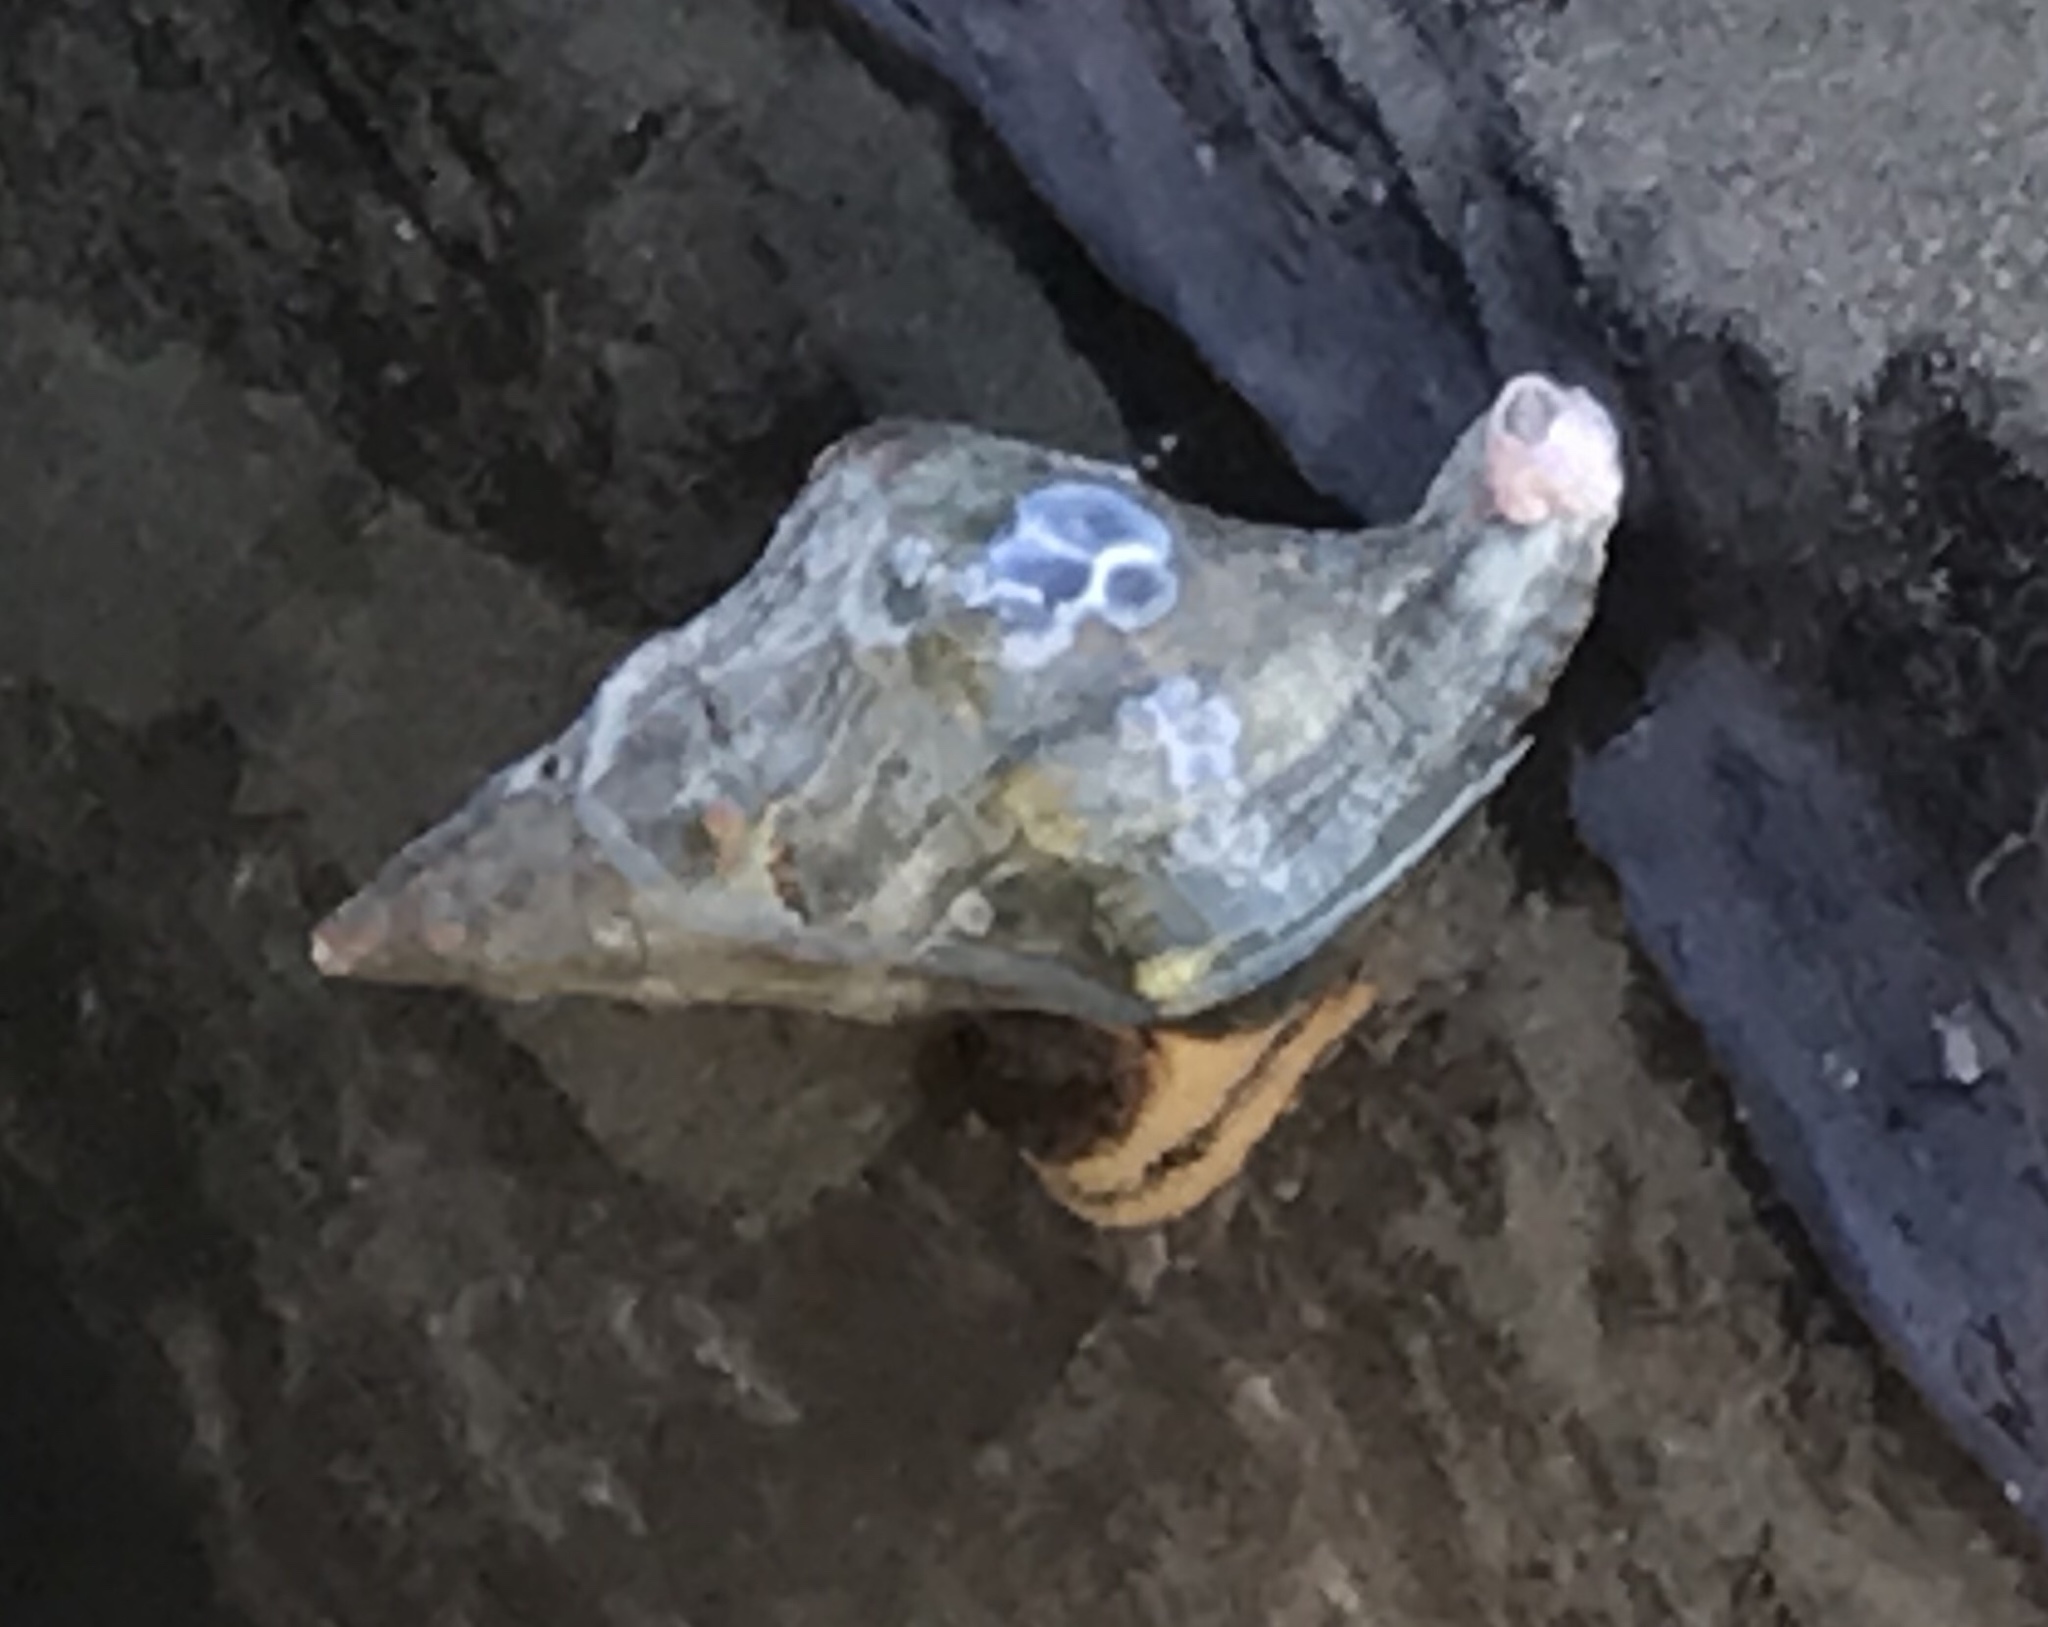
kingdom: Animalia
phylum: Mollusca
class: Gastropoda
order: Neogastropoda
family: Austrosiphonidae
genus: Kelletia
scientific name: Kelletia kelletii
